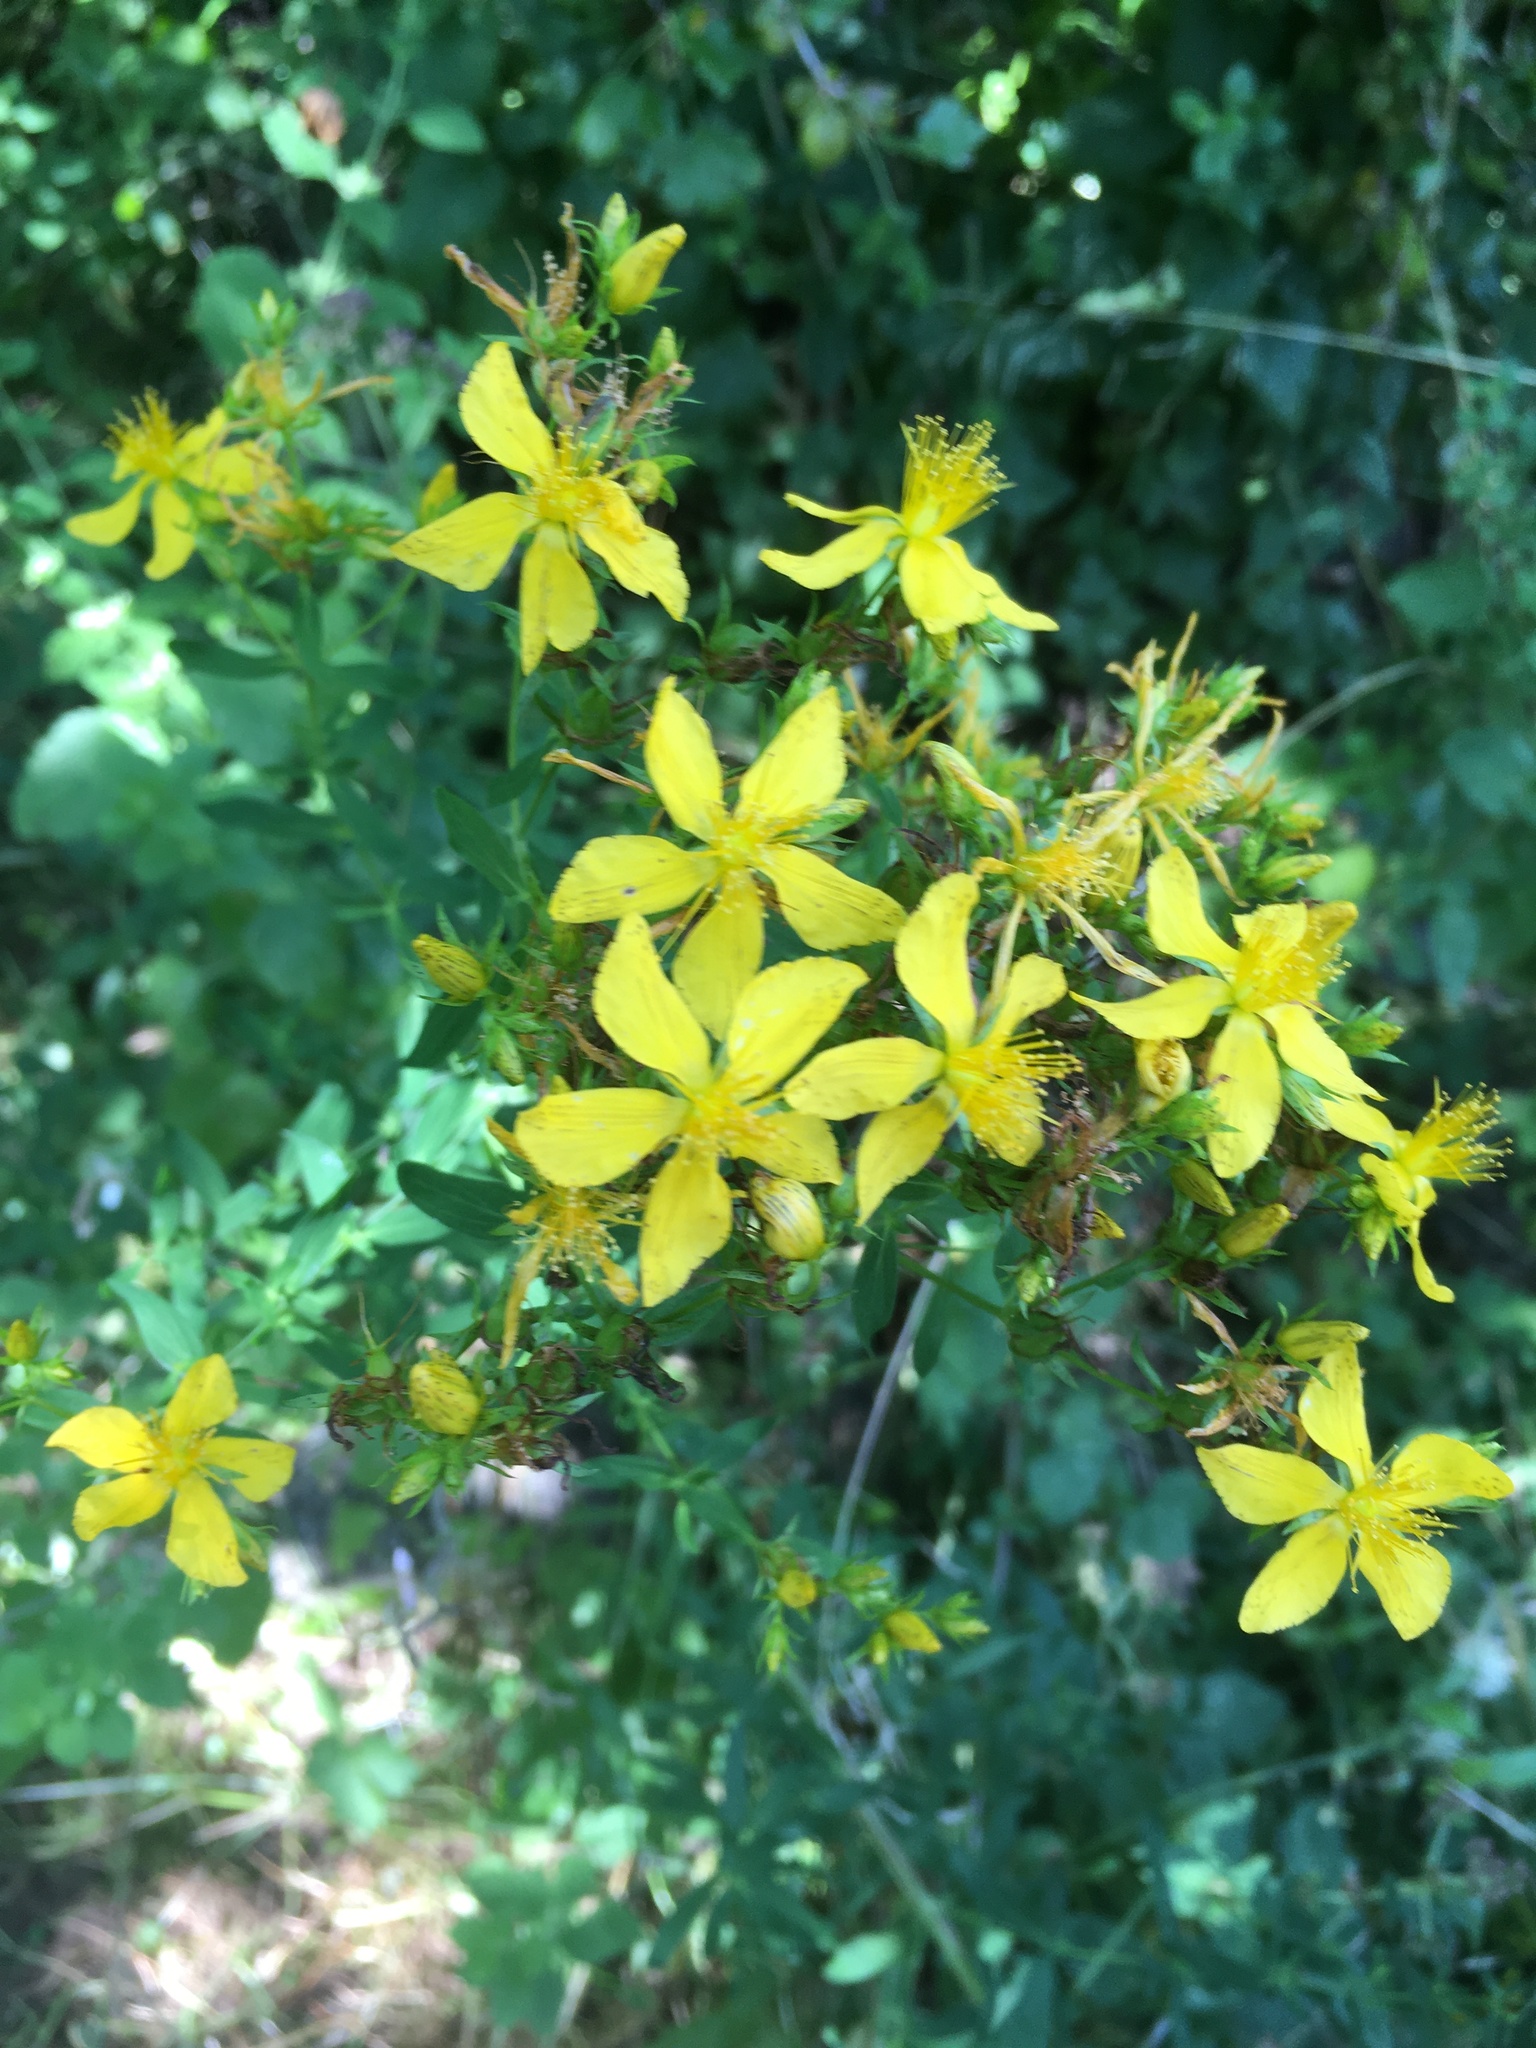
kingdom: Plantae
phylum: Tracheophyta
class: Magnoliopsida
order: Malpighiales
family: Hypericaceae
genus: Hypericum
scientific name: Hypericum perforatum
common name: Common st. johnswort
